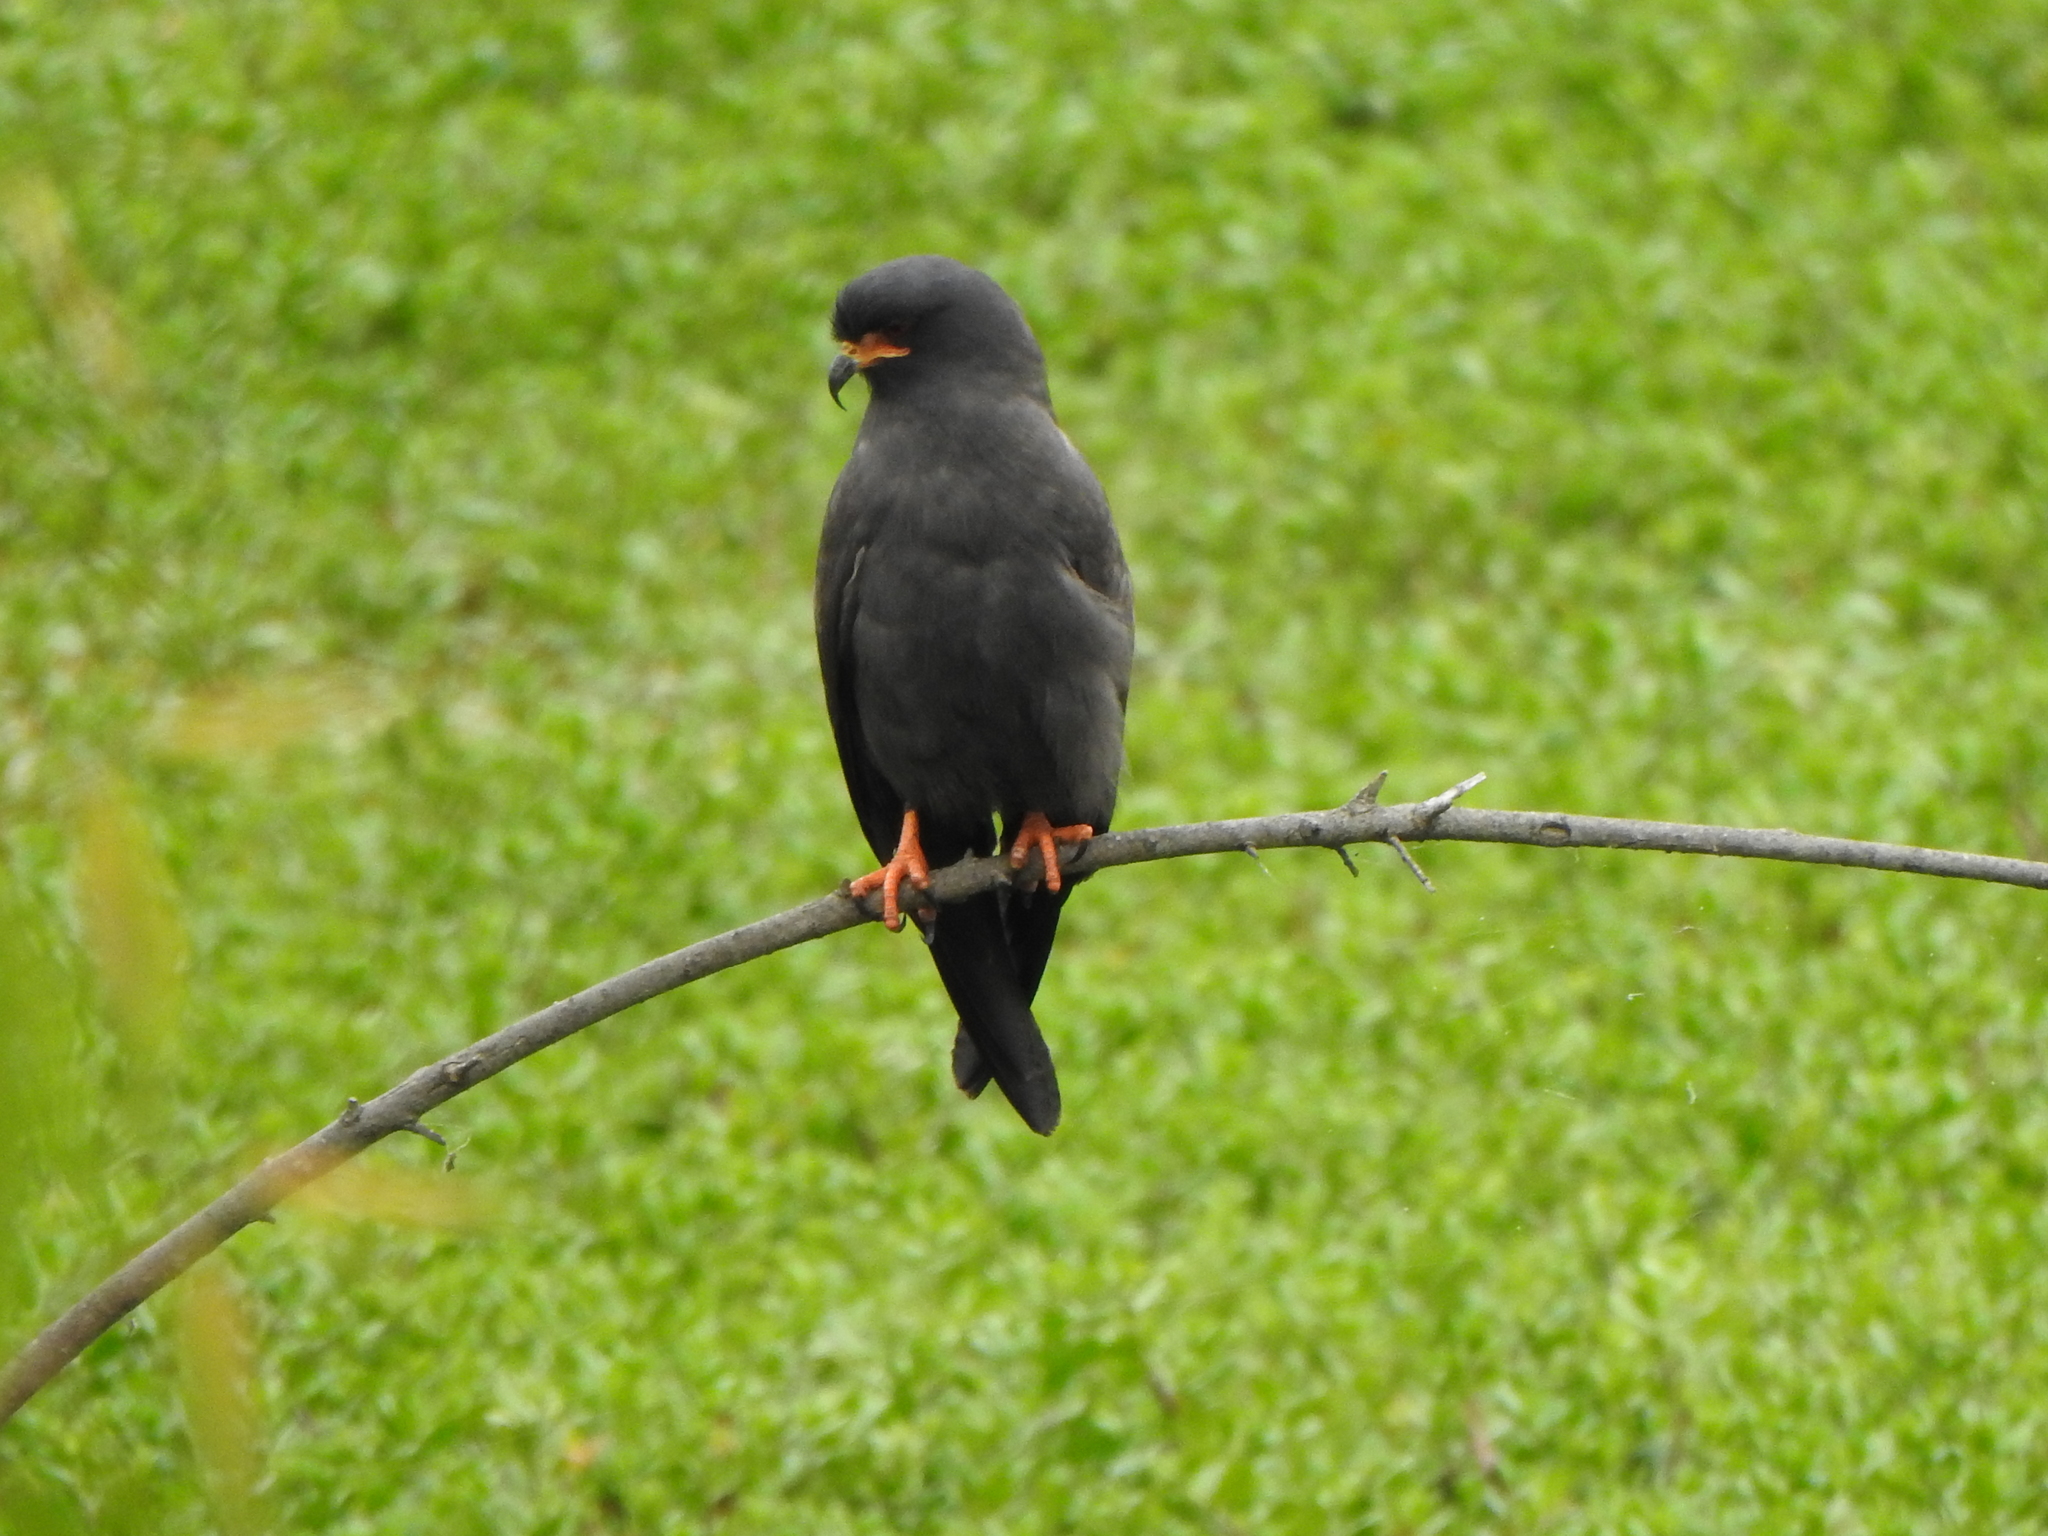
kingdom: Animalia
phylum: Chordata
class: Aves
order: Accipitriformes
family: Accipitridae
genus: Rostrhamus
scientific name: Rostrhamus sociabilis
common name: Snail kite
